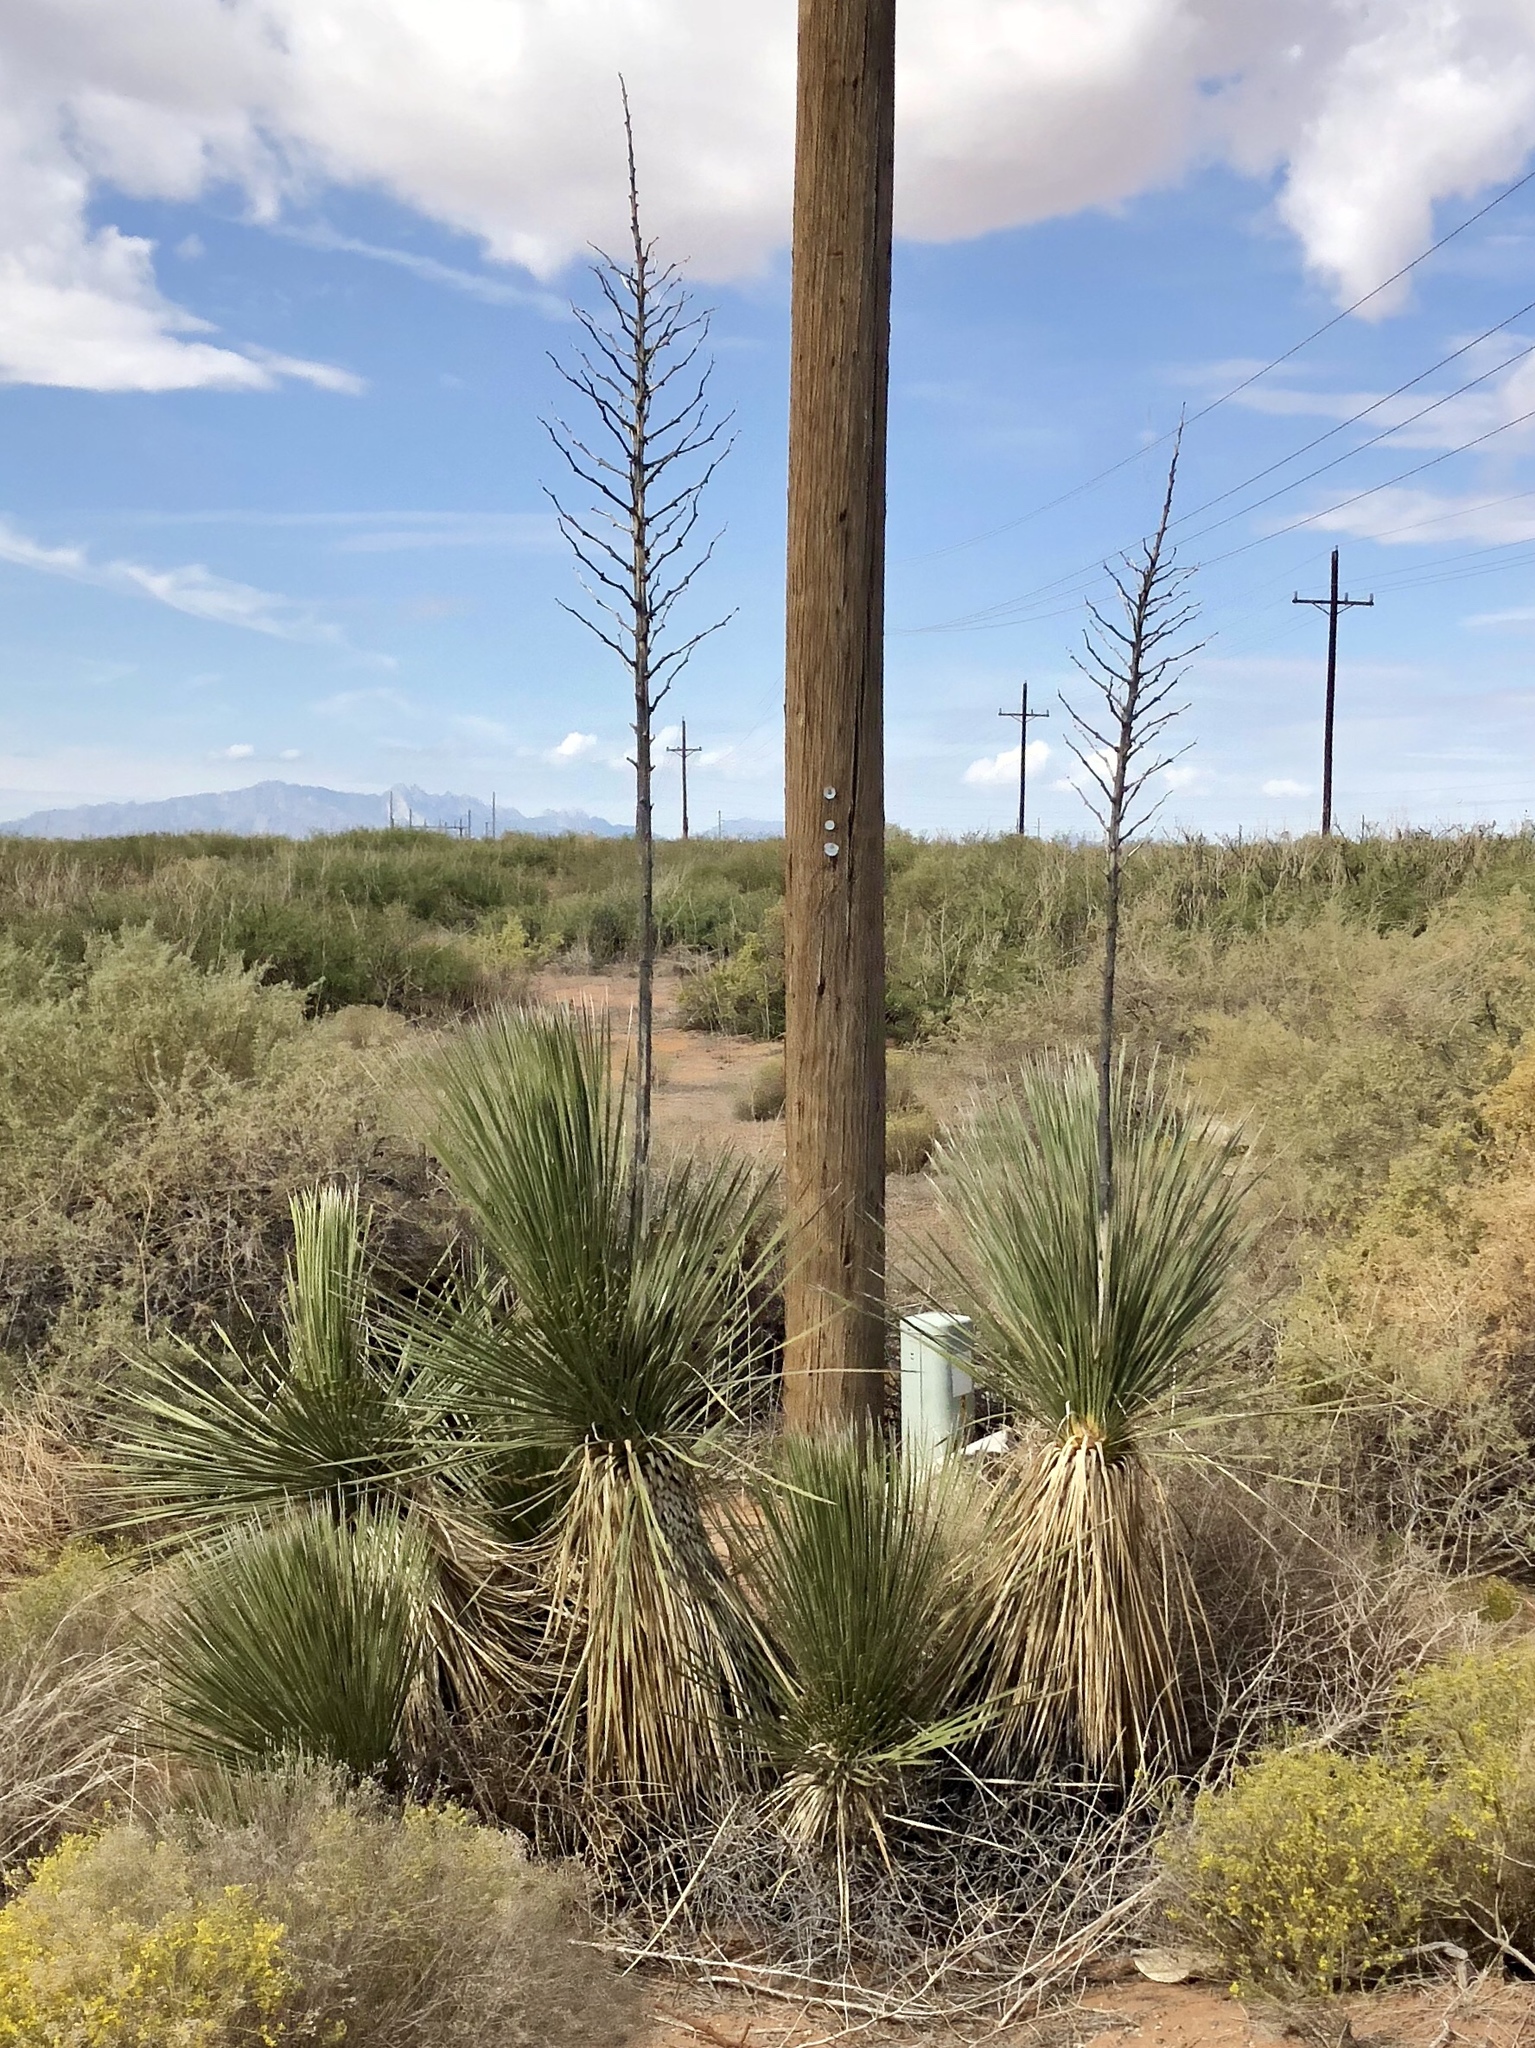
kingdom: Plantae
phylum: Tracheophyta
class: Liliopsida
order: Asparagales
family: Asparagaceae
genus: Yucca
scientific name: Yucca elata
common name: Palmella
